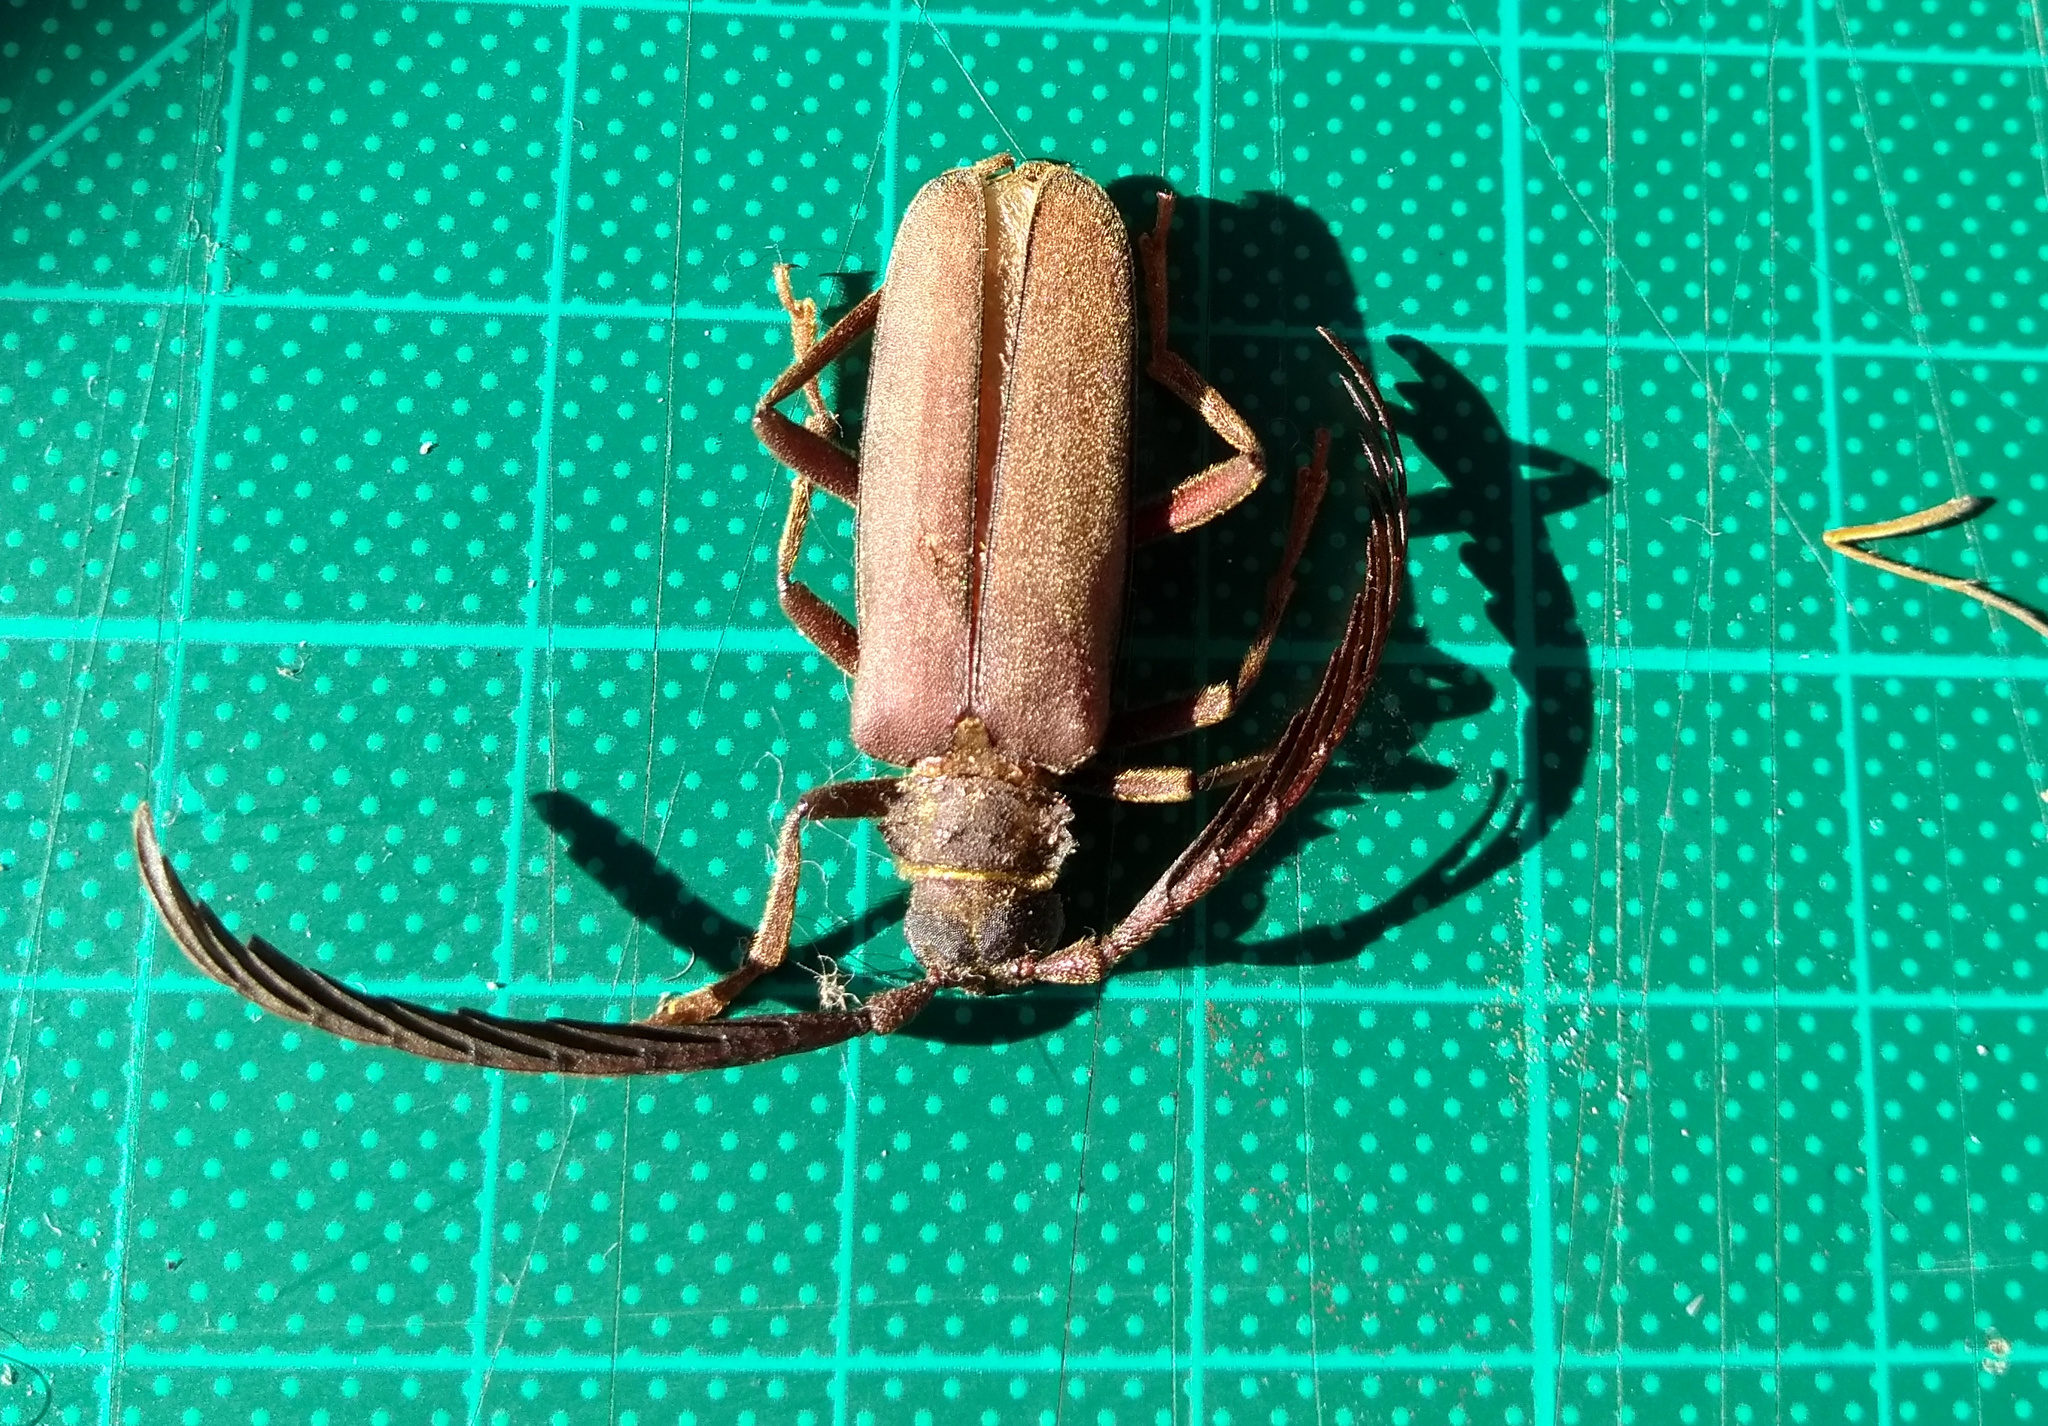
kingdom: Animalia
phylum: Arthropoda
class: Insecta
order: Coleoptera
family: Cerambycidae
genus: Polyoza
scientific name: Polyoza lacordairei
